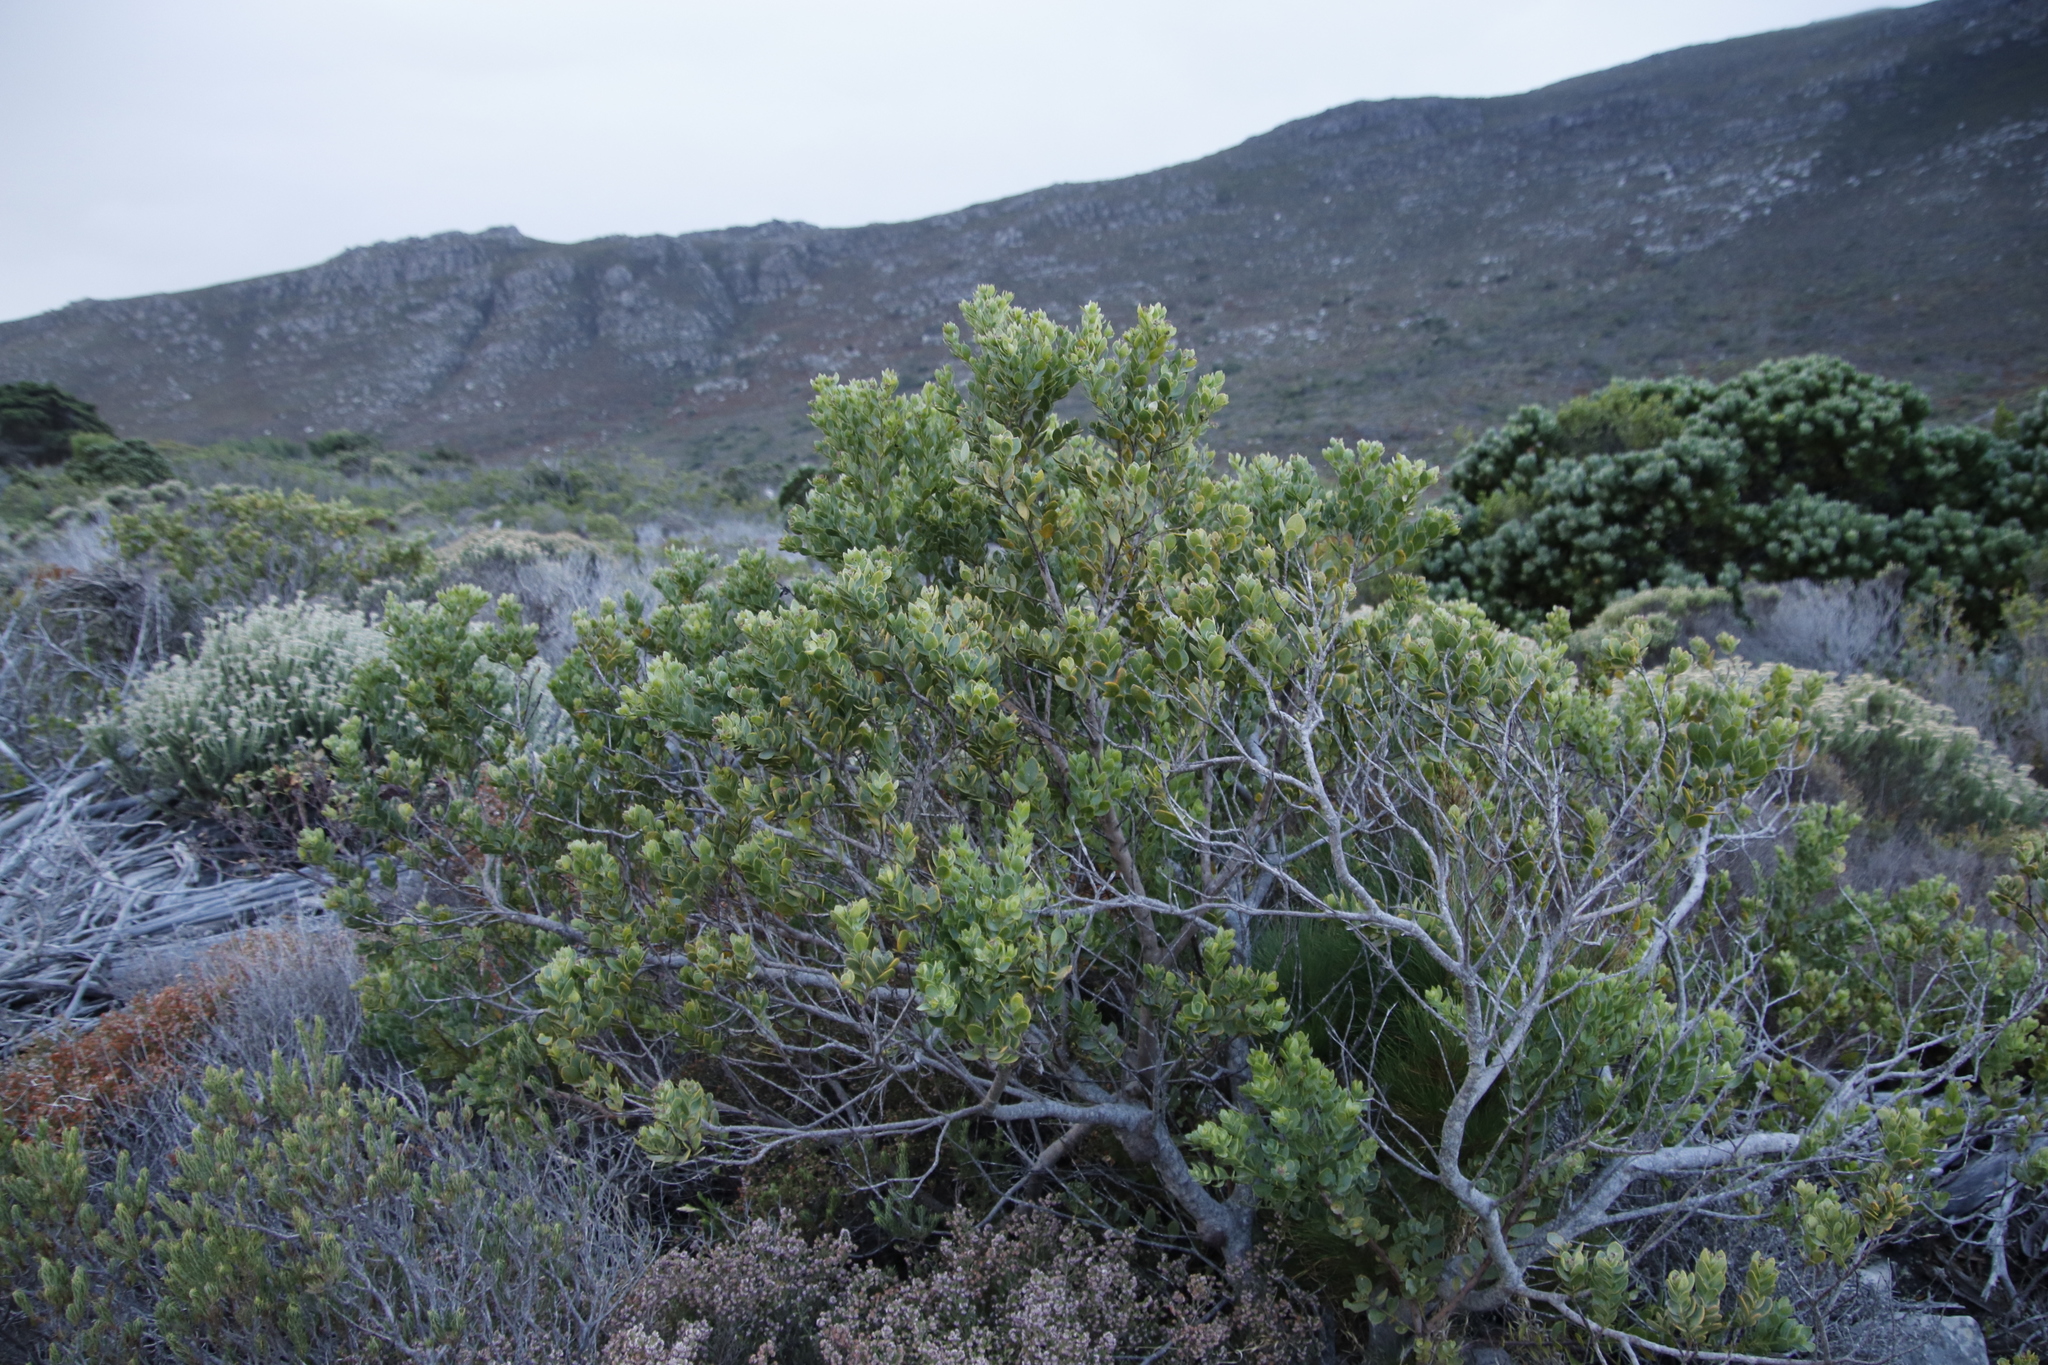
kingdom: Plantae
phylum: Tracheophyta
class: Magnoliopsida
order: Santalales
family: Santalaceae
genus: Osyris
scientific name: Osyris compressa
